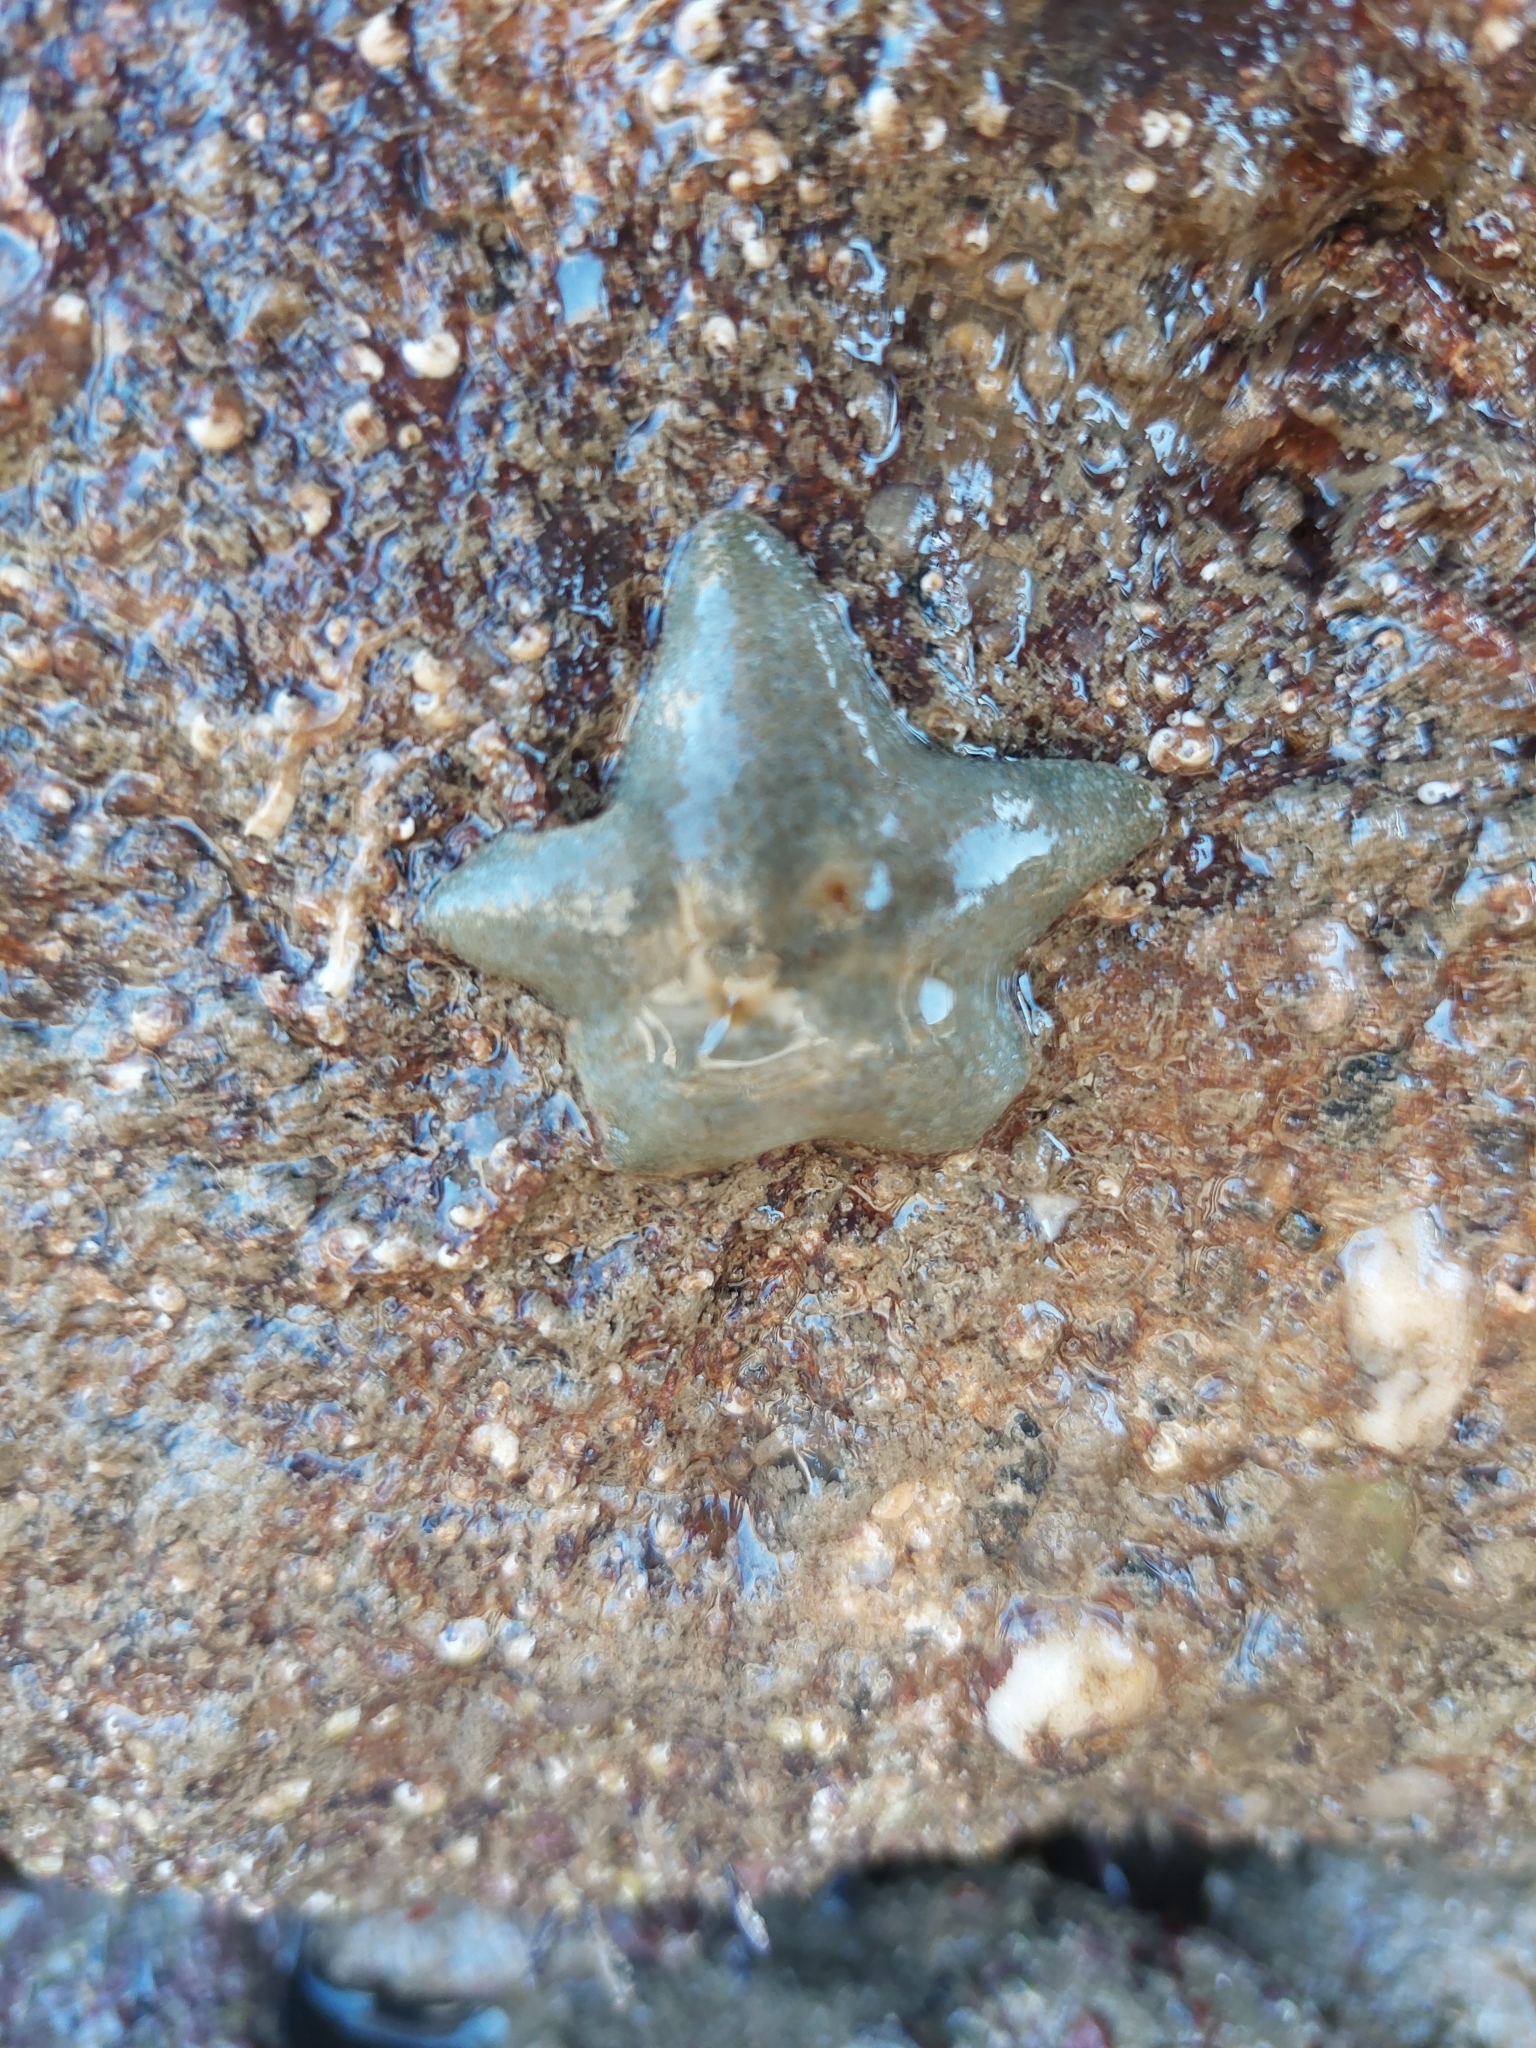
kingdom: Animalia
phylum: Echinodermata
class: Asteroidea
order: Valvatida
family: Asterinidae
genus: Asterina
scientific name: Asterina gibbosa
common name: Cushion star
